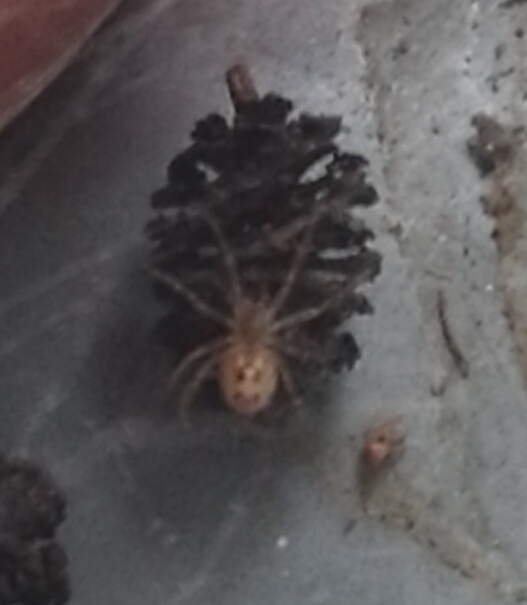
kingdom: Animalia
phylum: Arthropoda
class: Arachnida
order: Araneae
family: Theridiidae
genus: Steatoda
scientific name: Steatoda castanea
